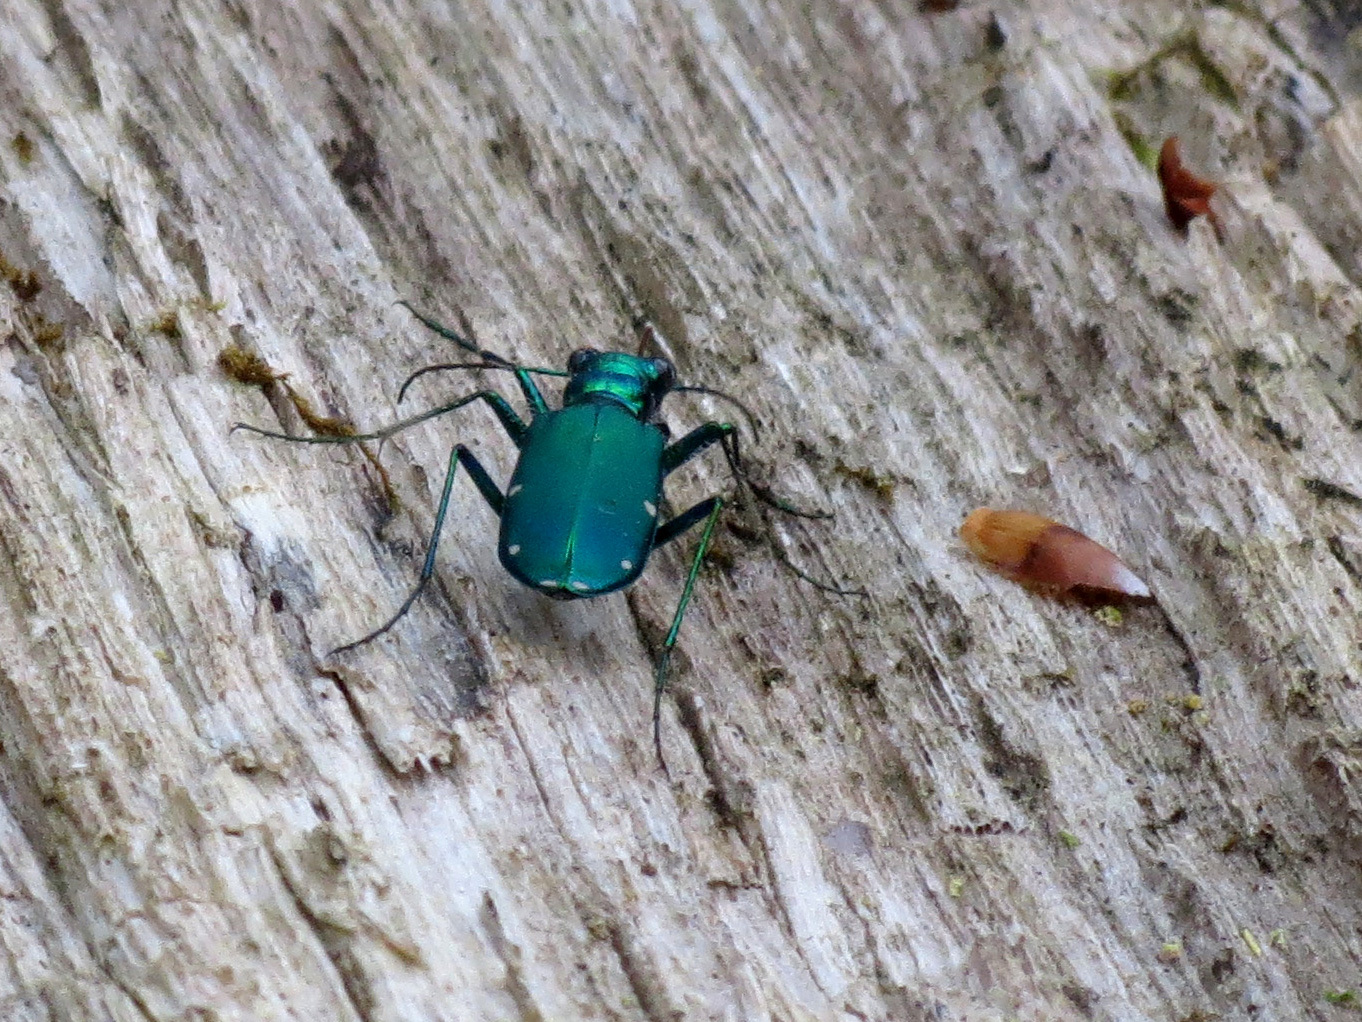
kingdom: Animalia
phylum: Arthropoda
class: Insecta
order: Coleoptera
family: Carabidae
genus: Cicindela
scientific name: Cicindela sexguttata
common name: Six-spotted tiger beetle
